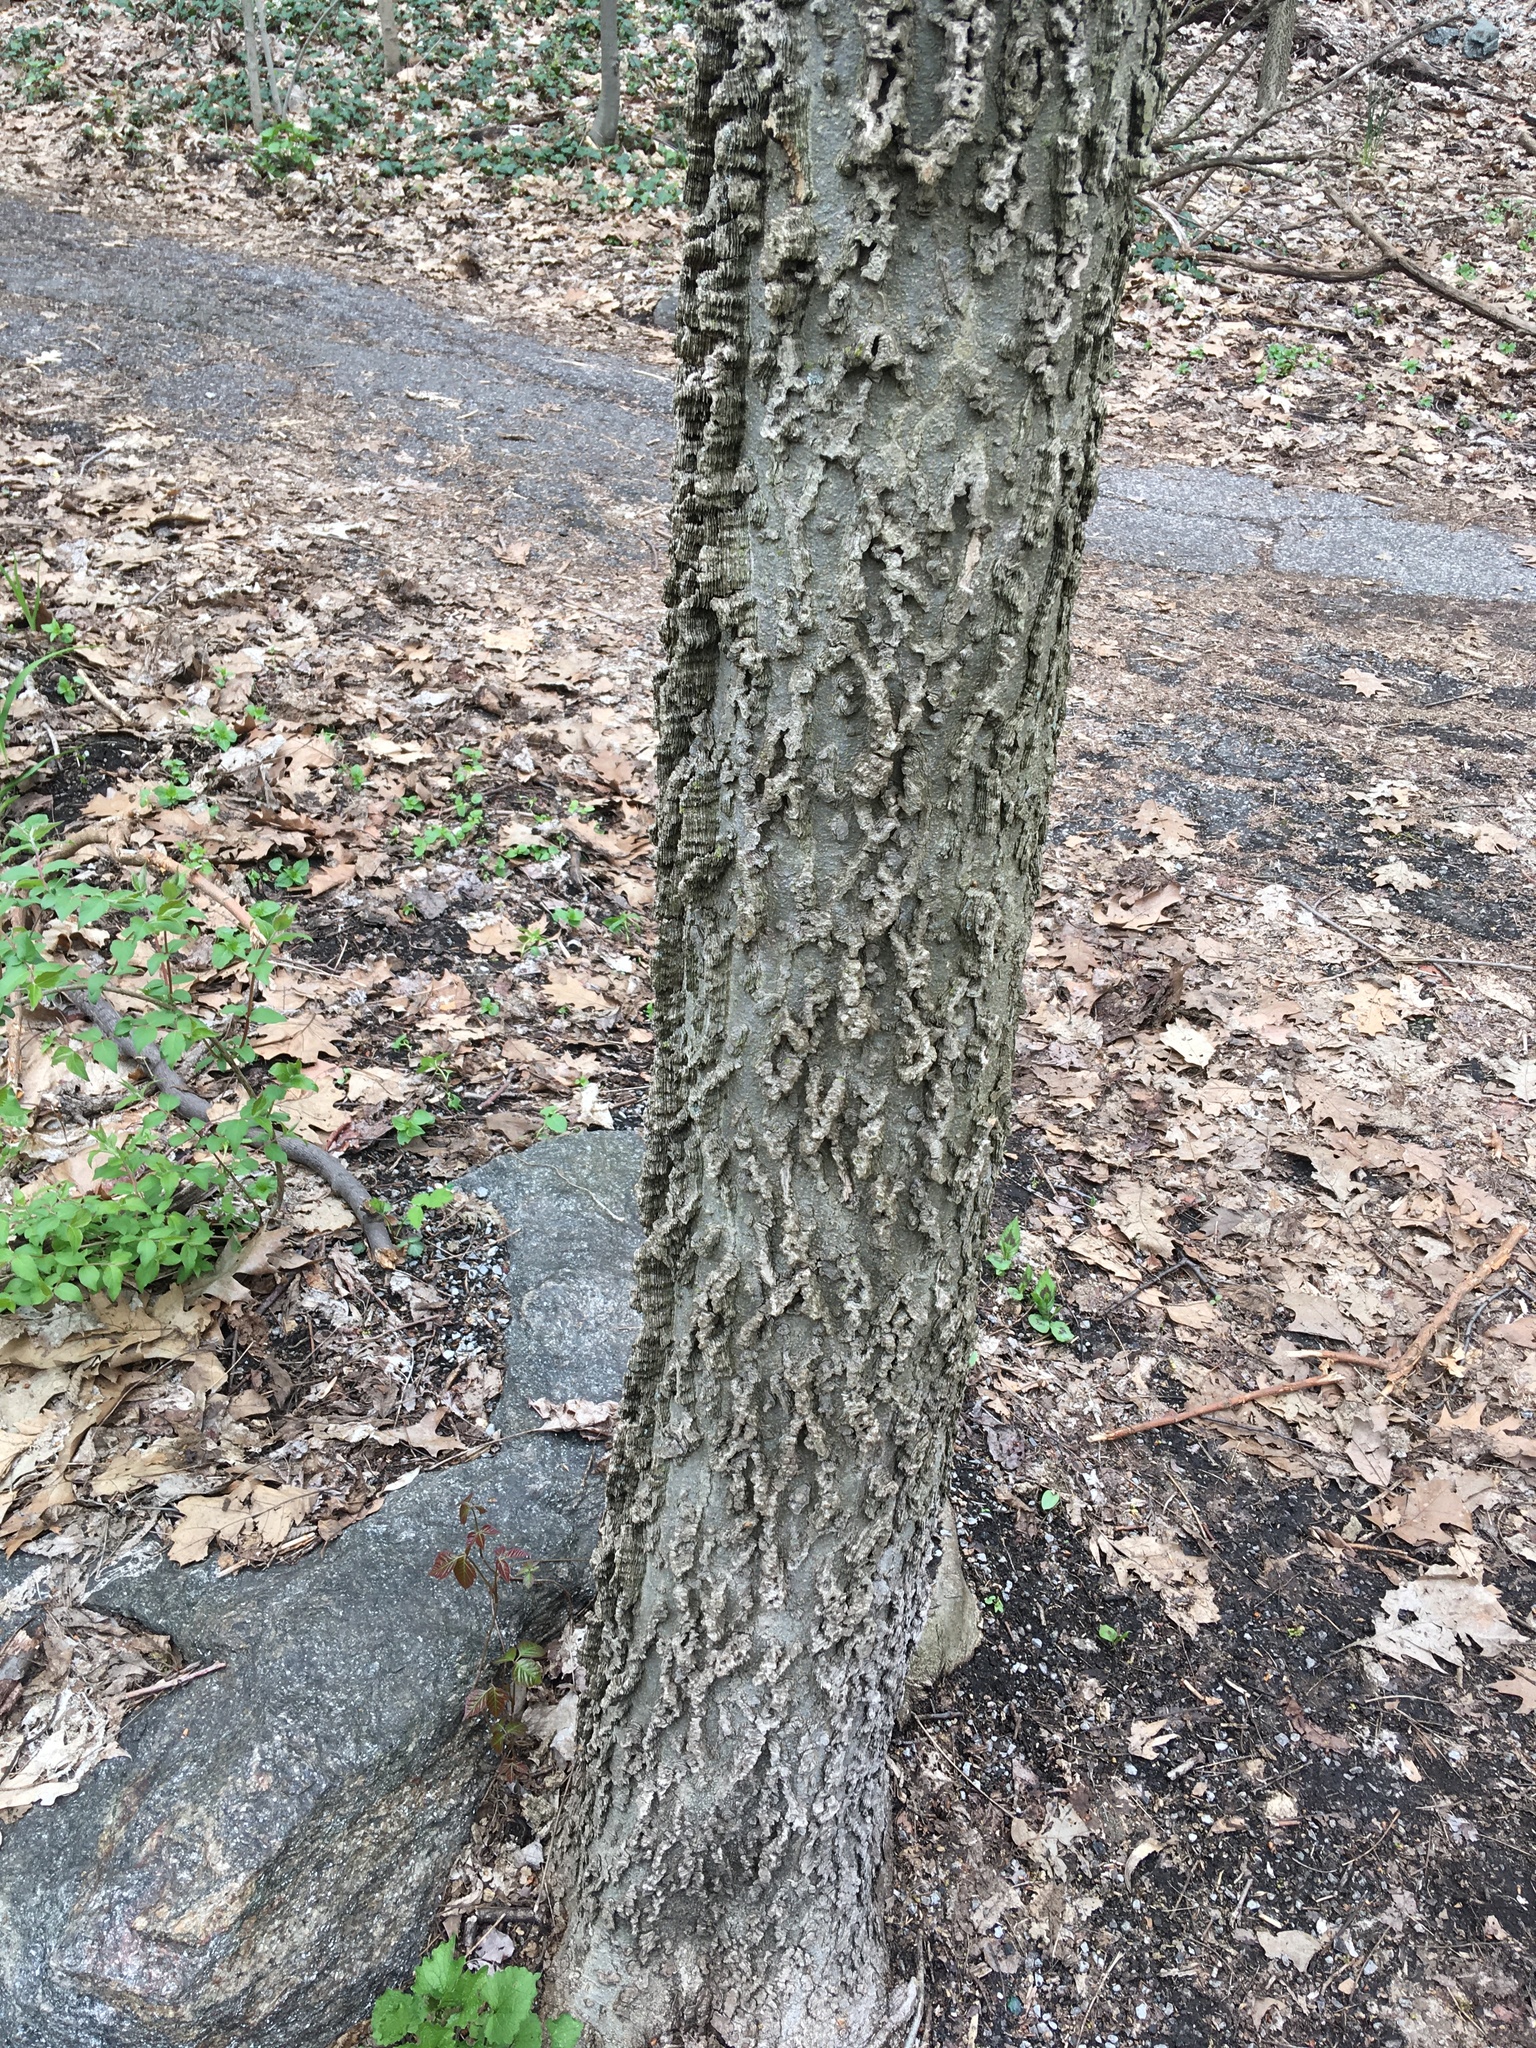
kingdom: Plantae
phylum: Tracheophyta
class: Magnoliopsida
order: Rosales
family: Cannabaceae
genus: Celtis
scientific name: Celtis occidentalis
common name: Common hackberry
